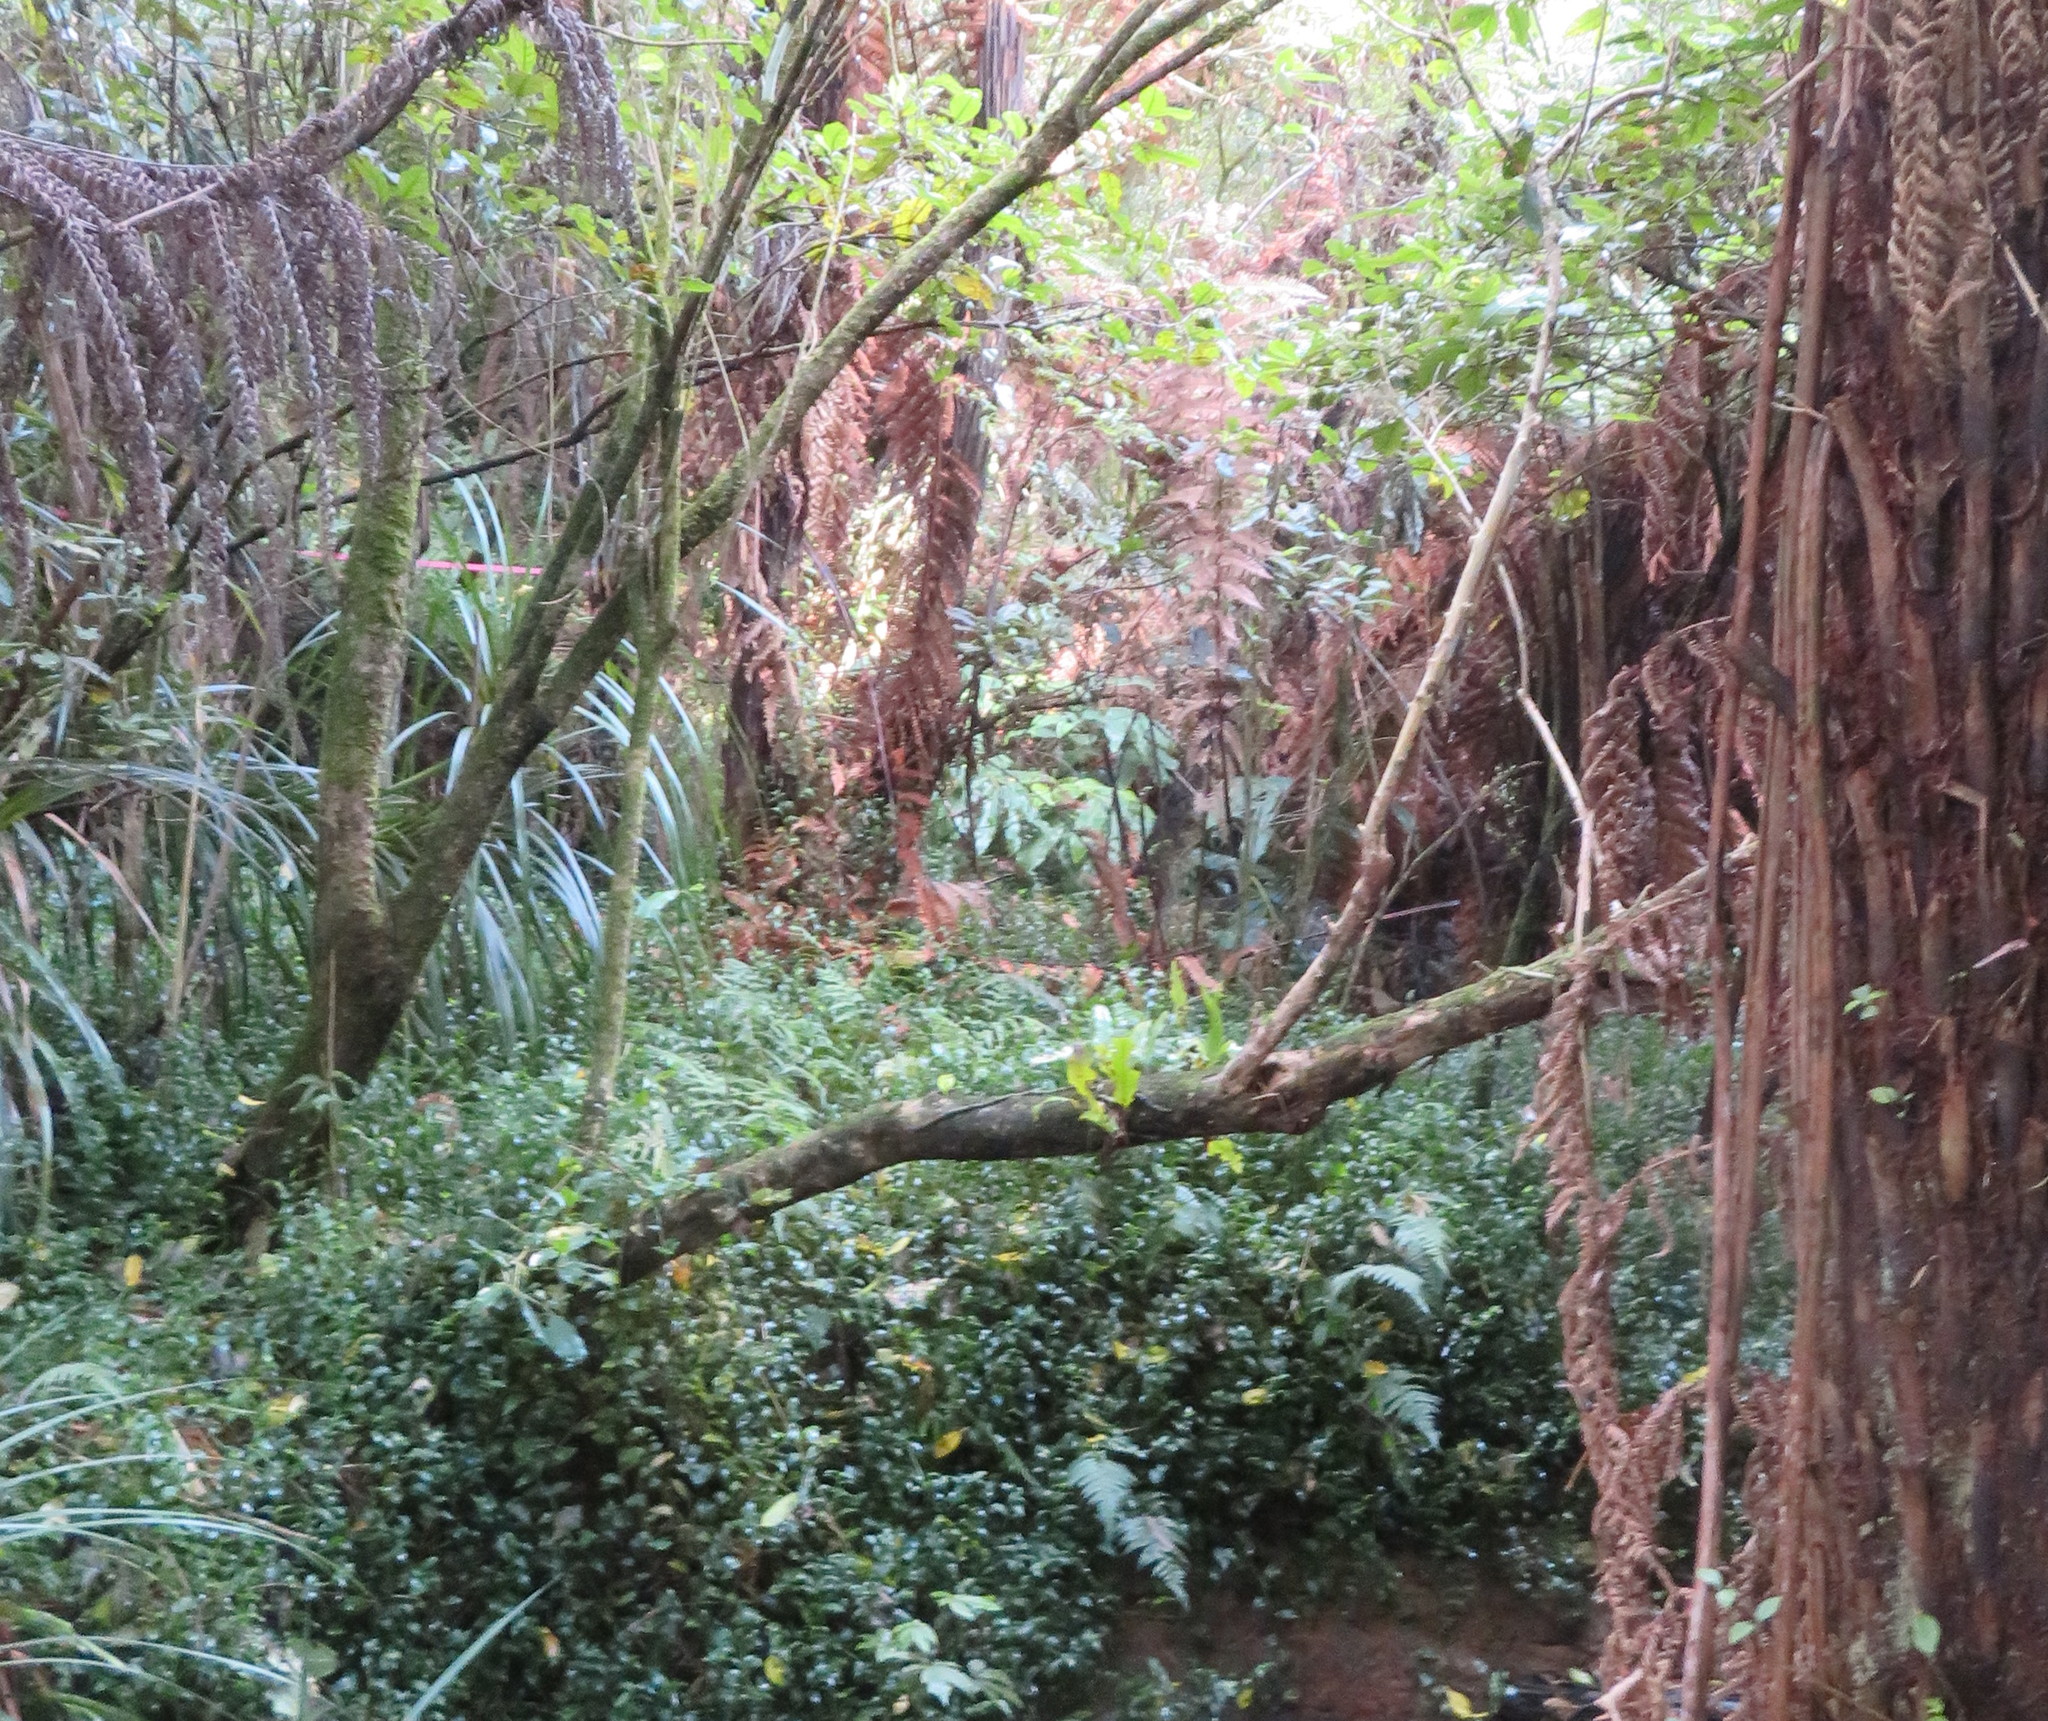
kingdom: Plantae
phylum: Tracheophyta
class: Magnoliopsida
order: Gentianales
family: Rubiaceae
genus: Coprosma
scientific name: Coprosma autumnalis
